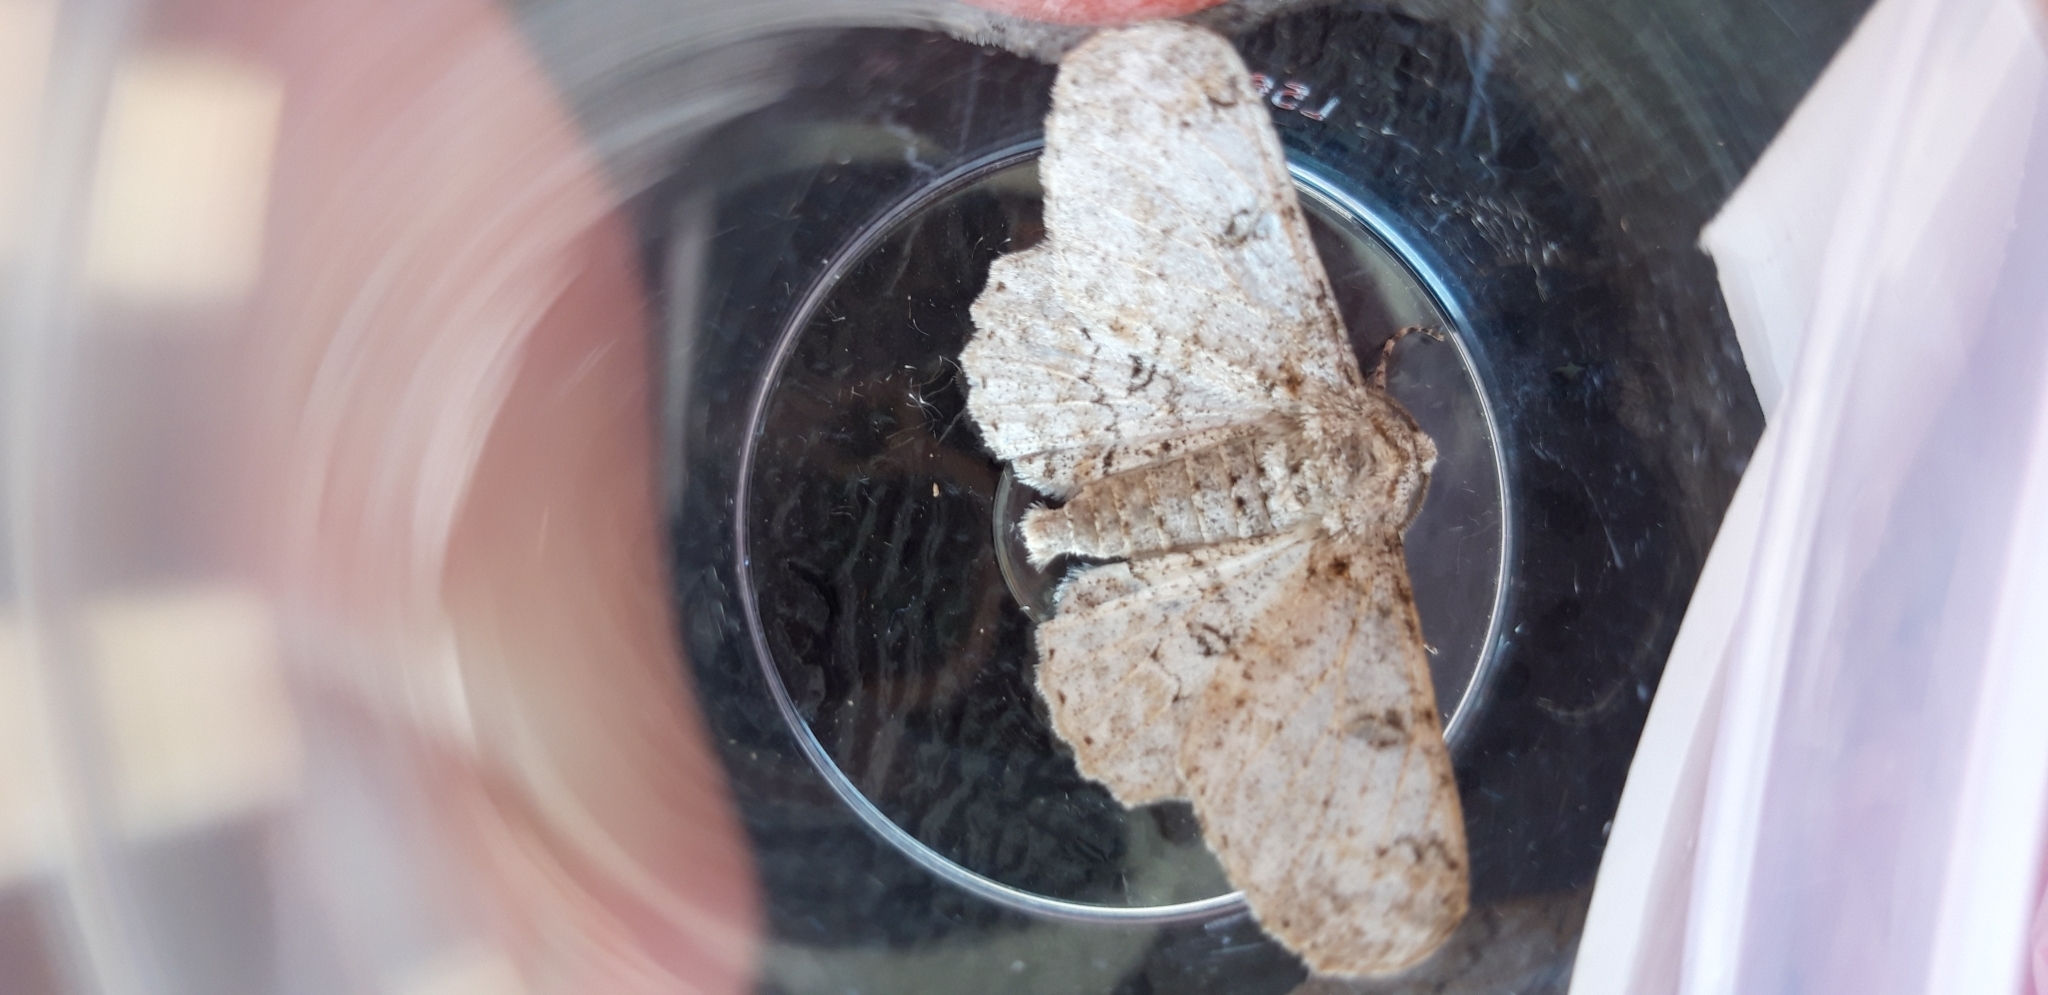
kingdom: Animalia
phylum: Arthropoda
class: Insecta
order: Lepidoptera
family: Geometridae
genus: Ascotis
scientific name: Ascotis selenaria
